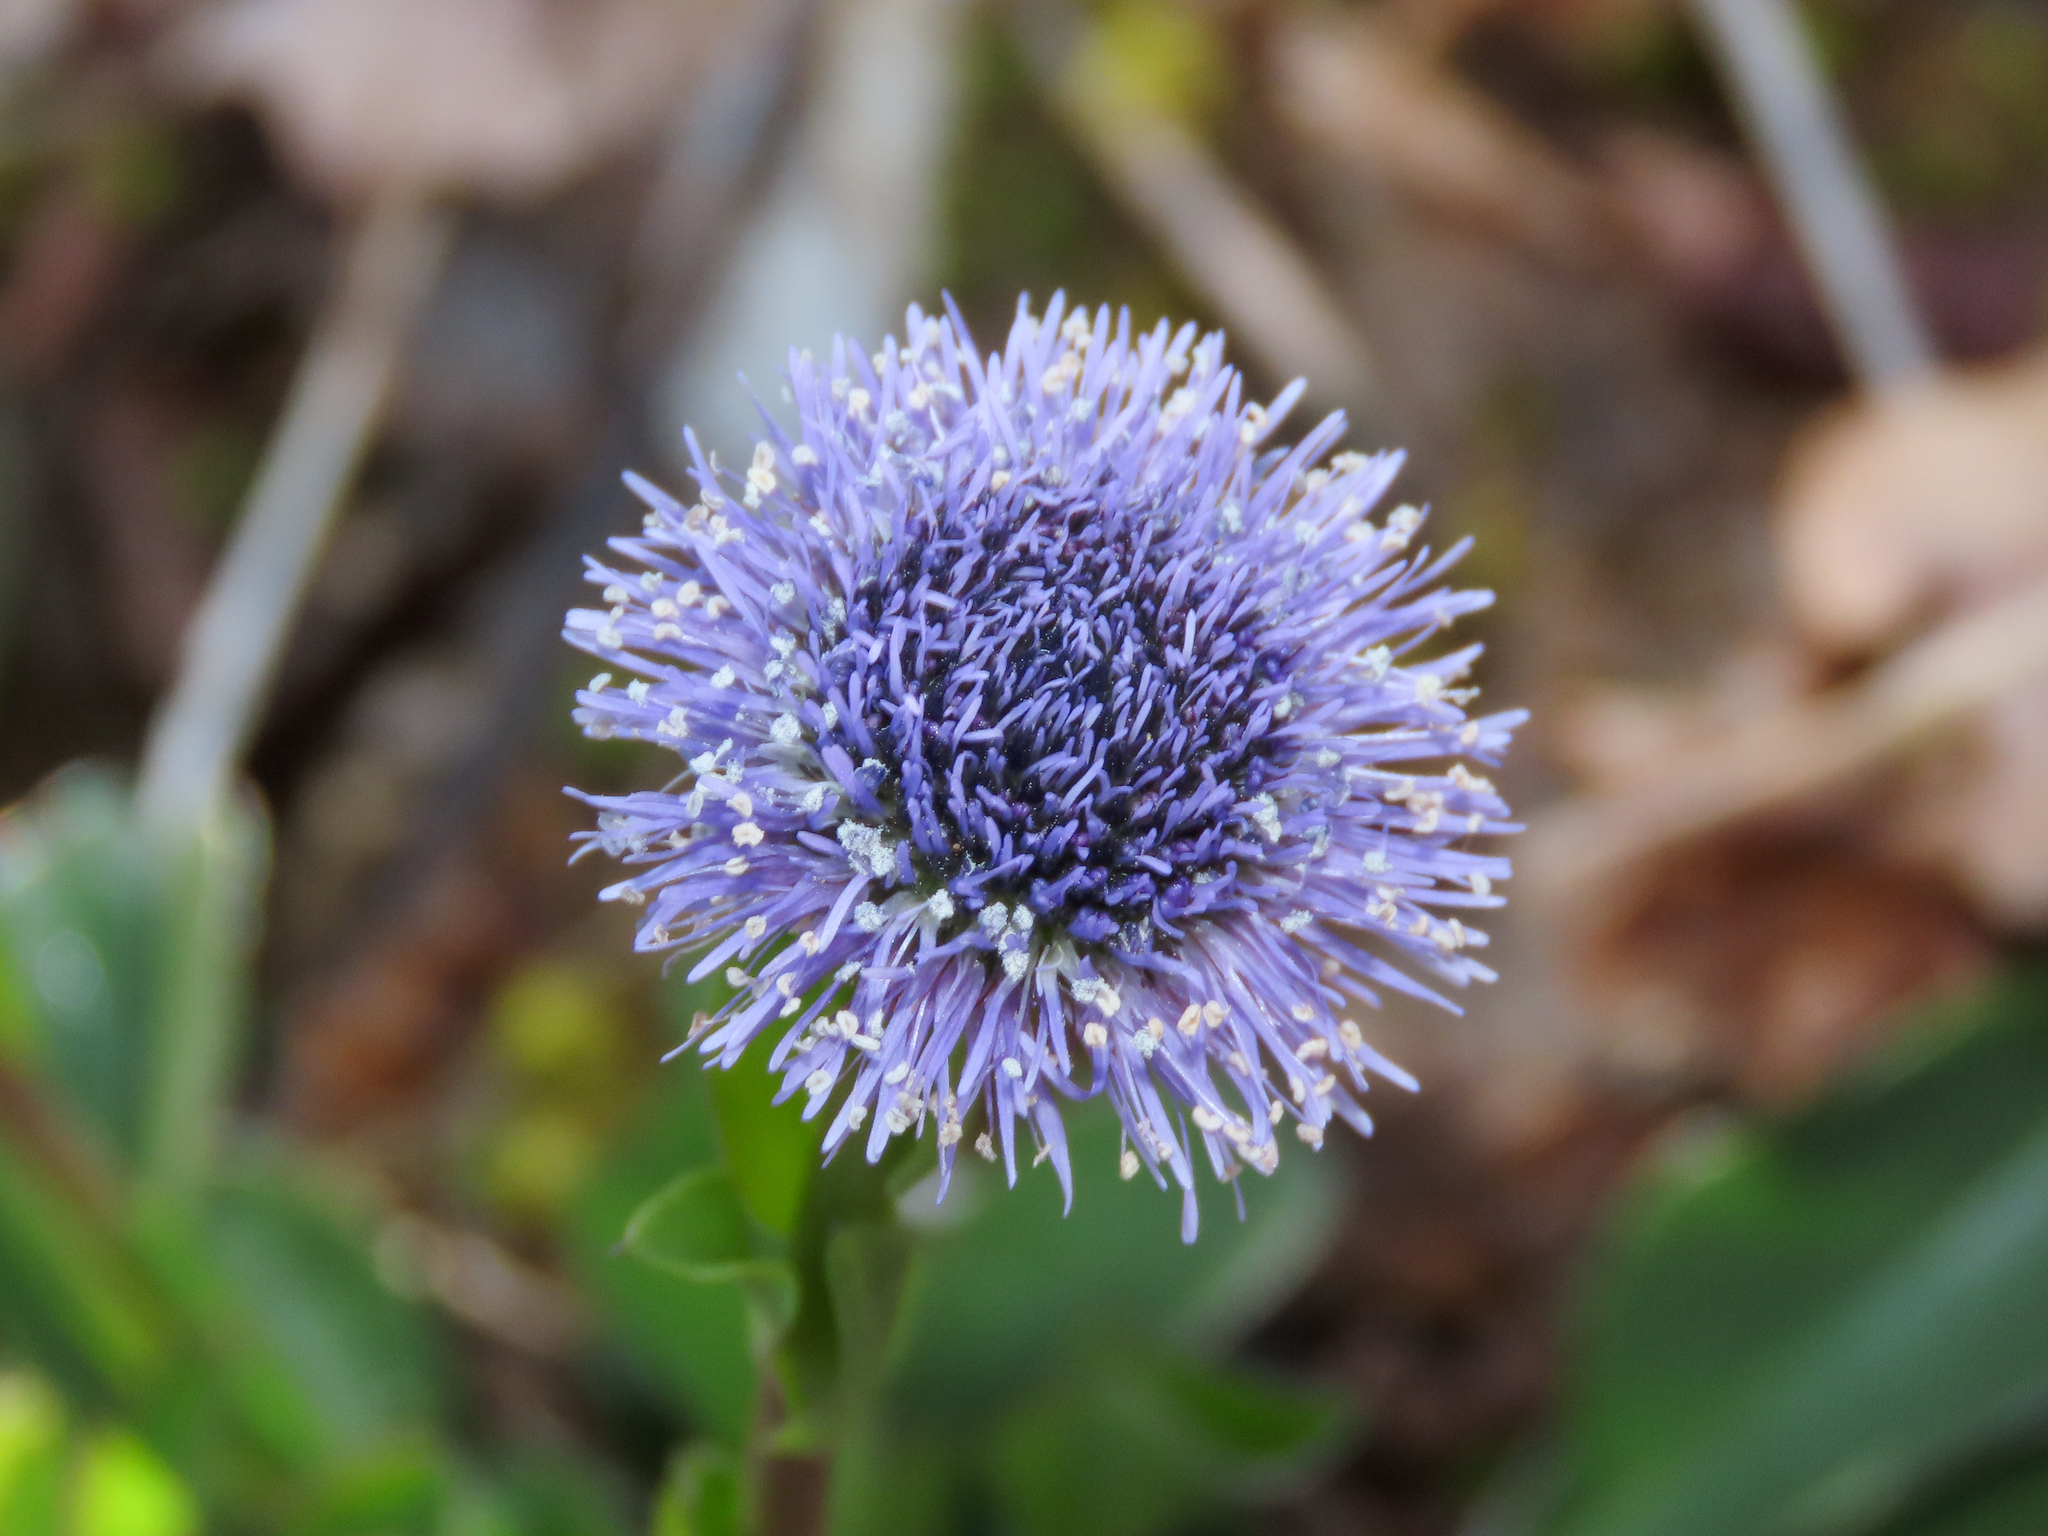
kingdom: Plantae
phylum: Tracheophyta
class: Magnoliopsida
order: Lamiales
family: Plantaginaceae
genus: Globularia
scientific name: Globularia bisnagarica
